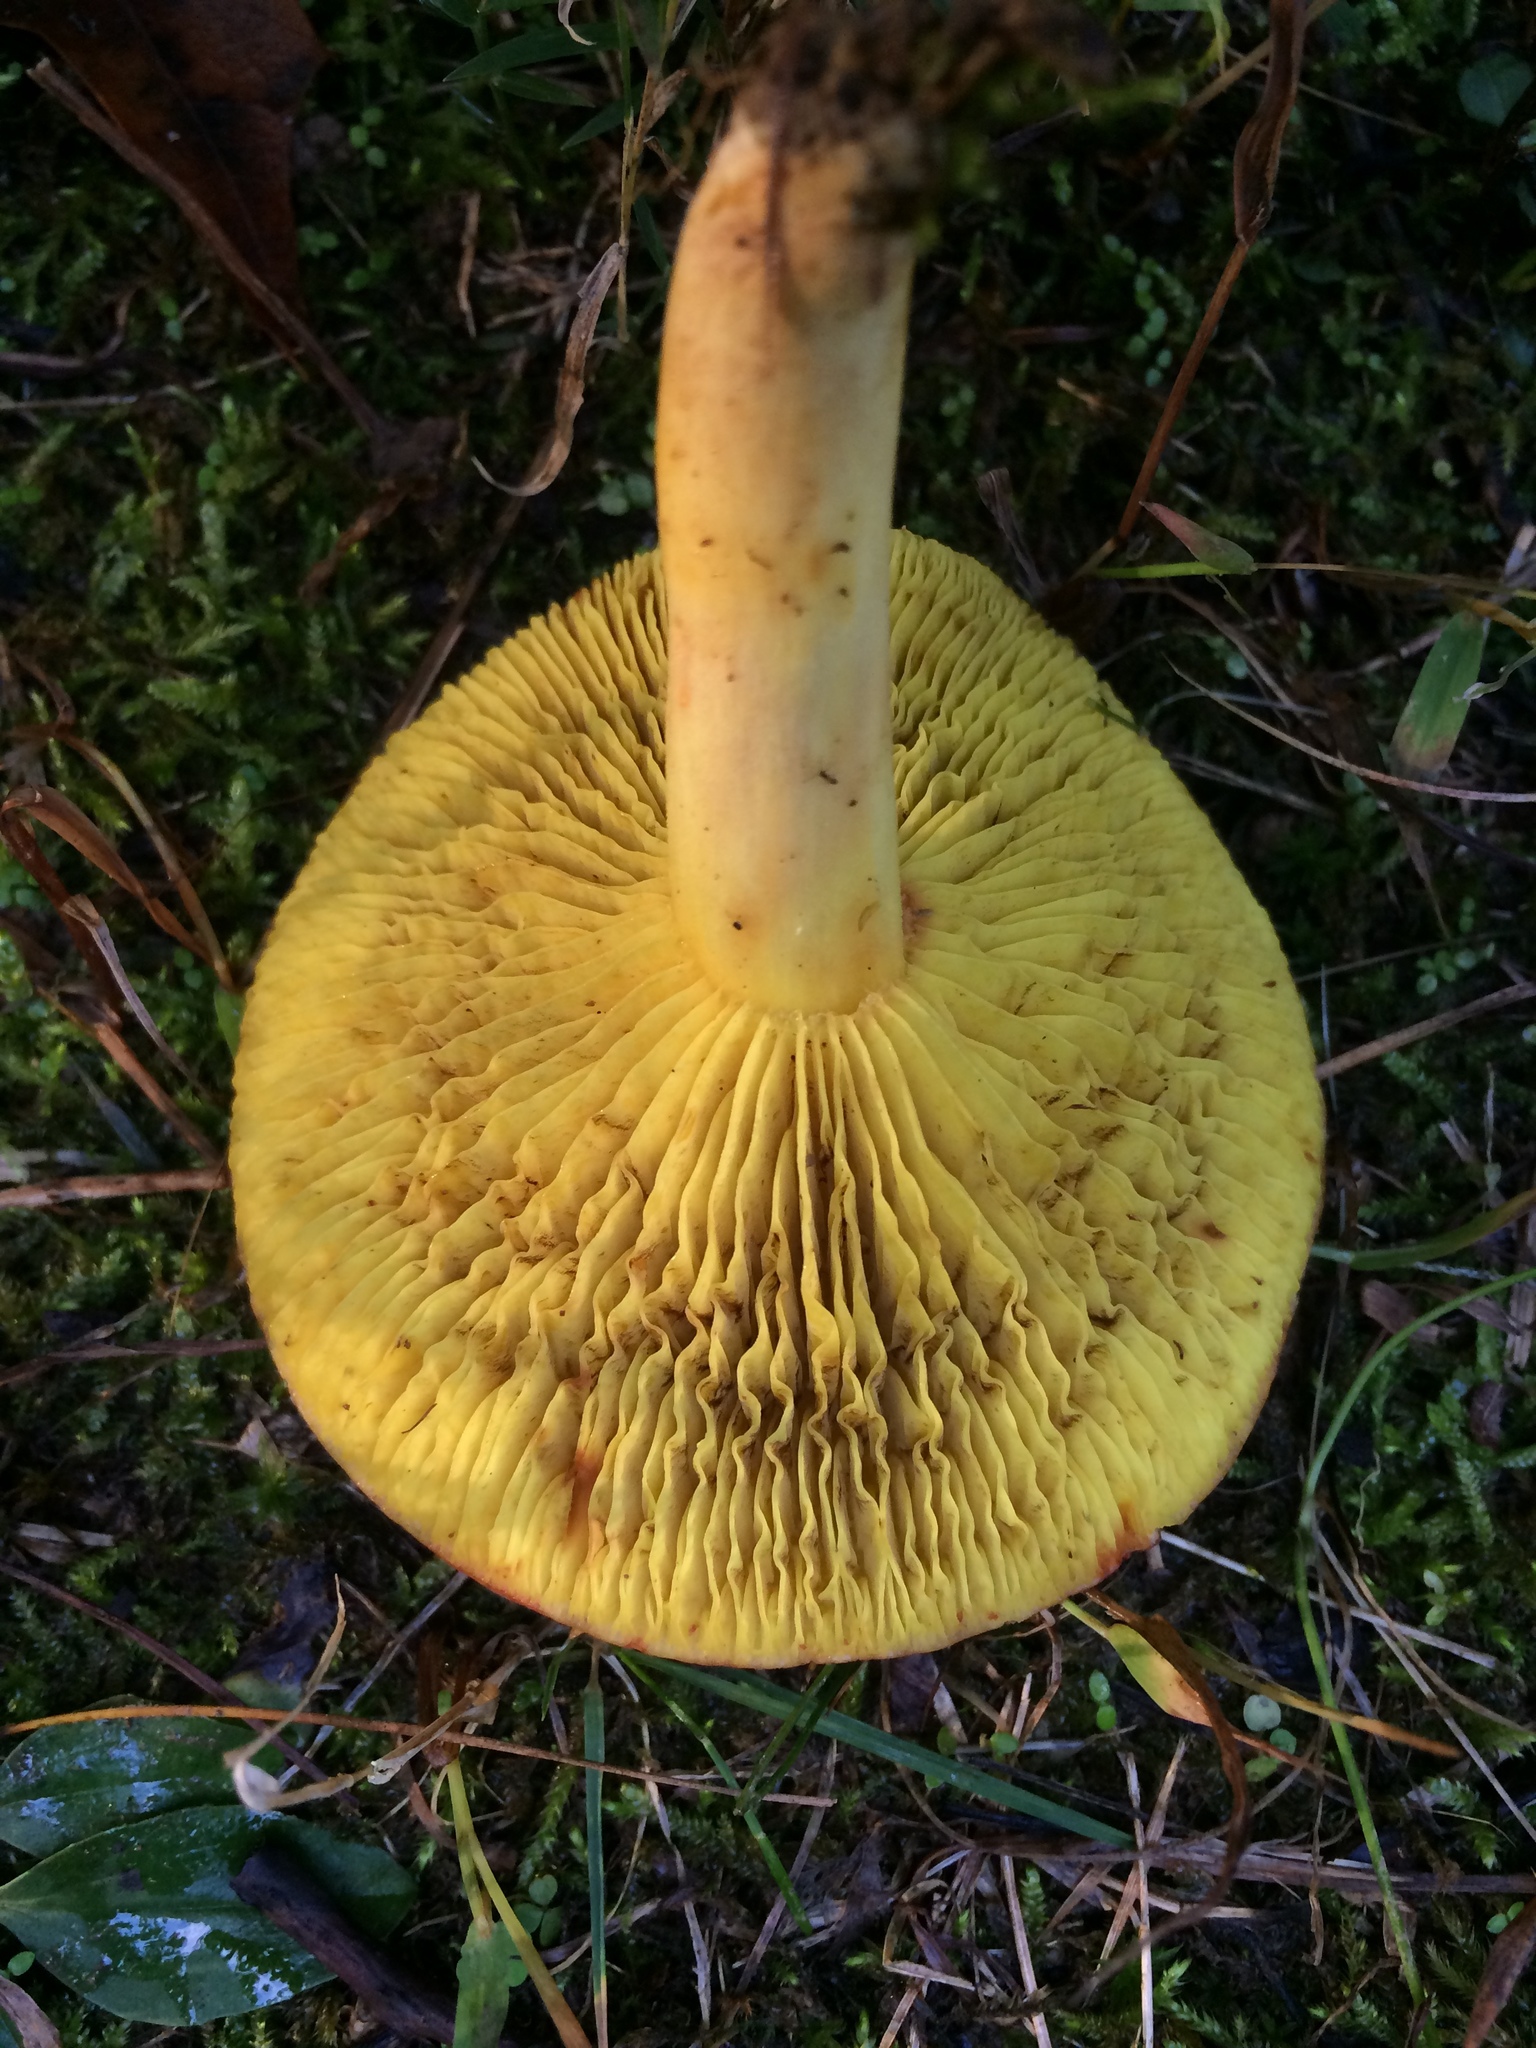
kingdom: Fungi
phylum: Basidiomycota
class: Agaricomycetes
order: Boletales
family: Boletaceae
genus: Phylloporus
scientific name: Phylloporus rhodoxanthus
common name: Golden gilled bolete
